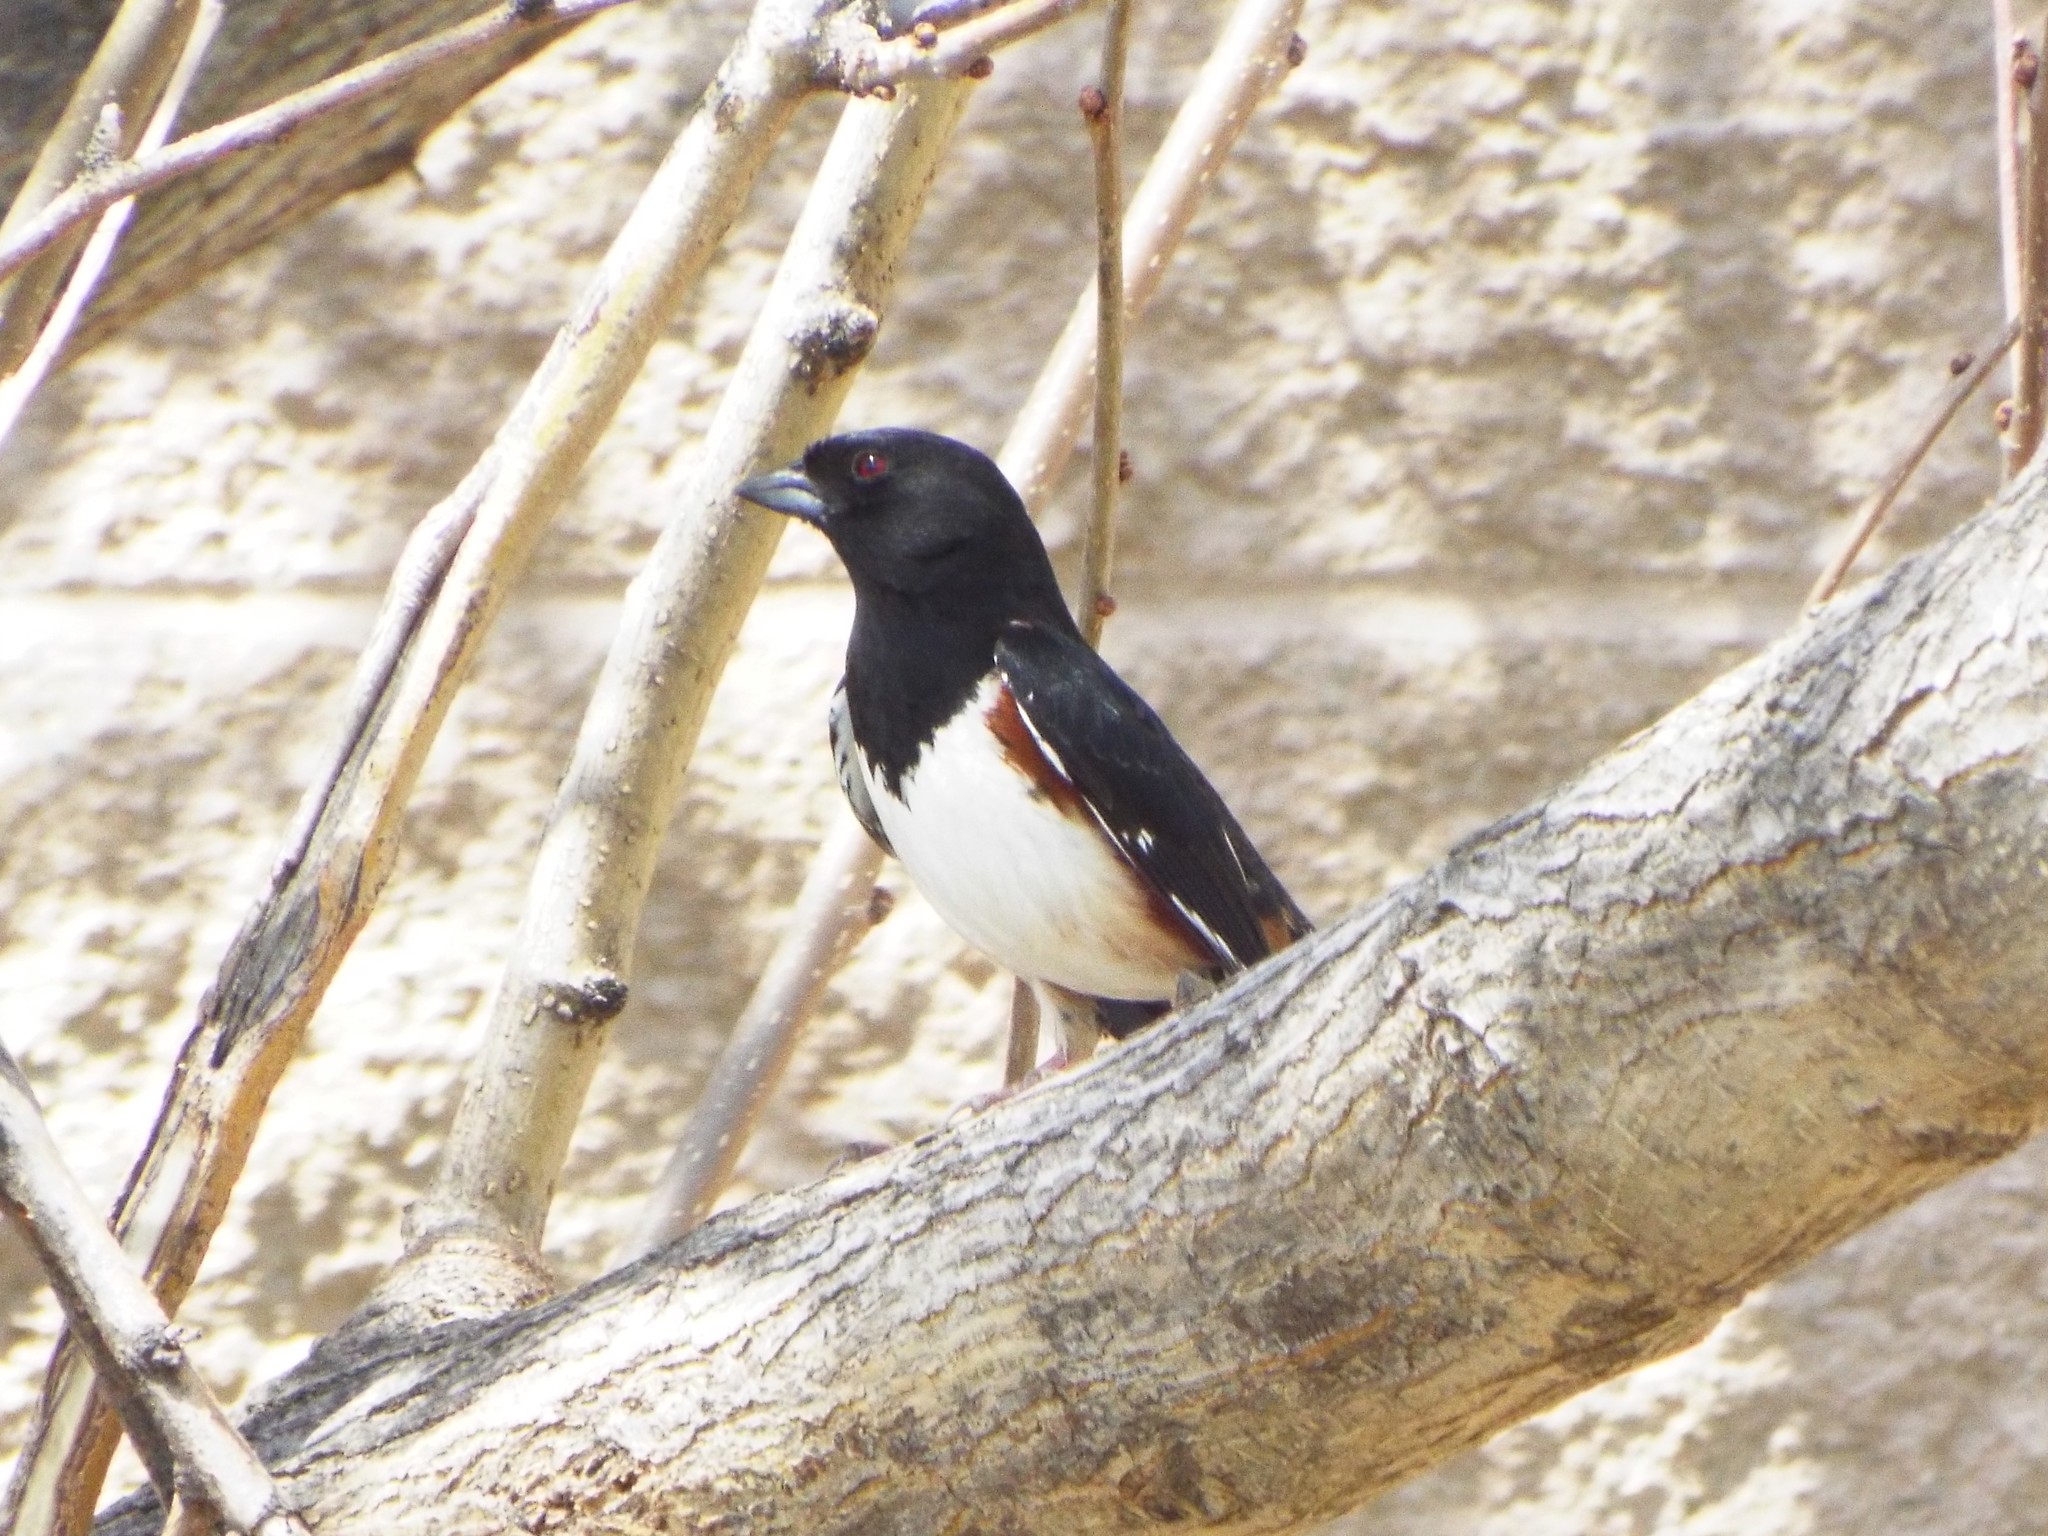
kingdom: Animalia
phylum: Chordata
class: Aves
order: Passeriformes
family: Passerellidae
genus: Pipilo
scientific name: Pipilo erythrophthalmus
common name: Eastern towhee
